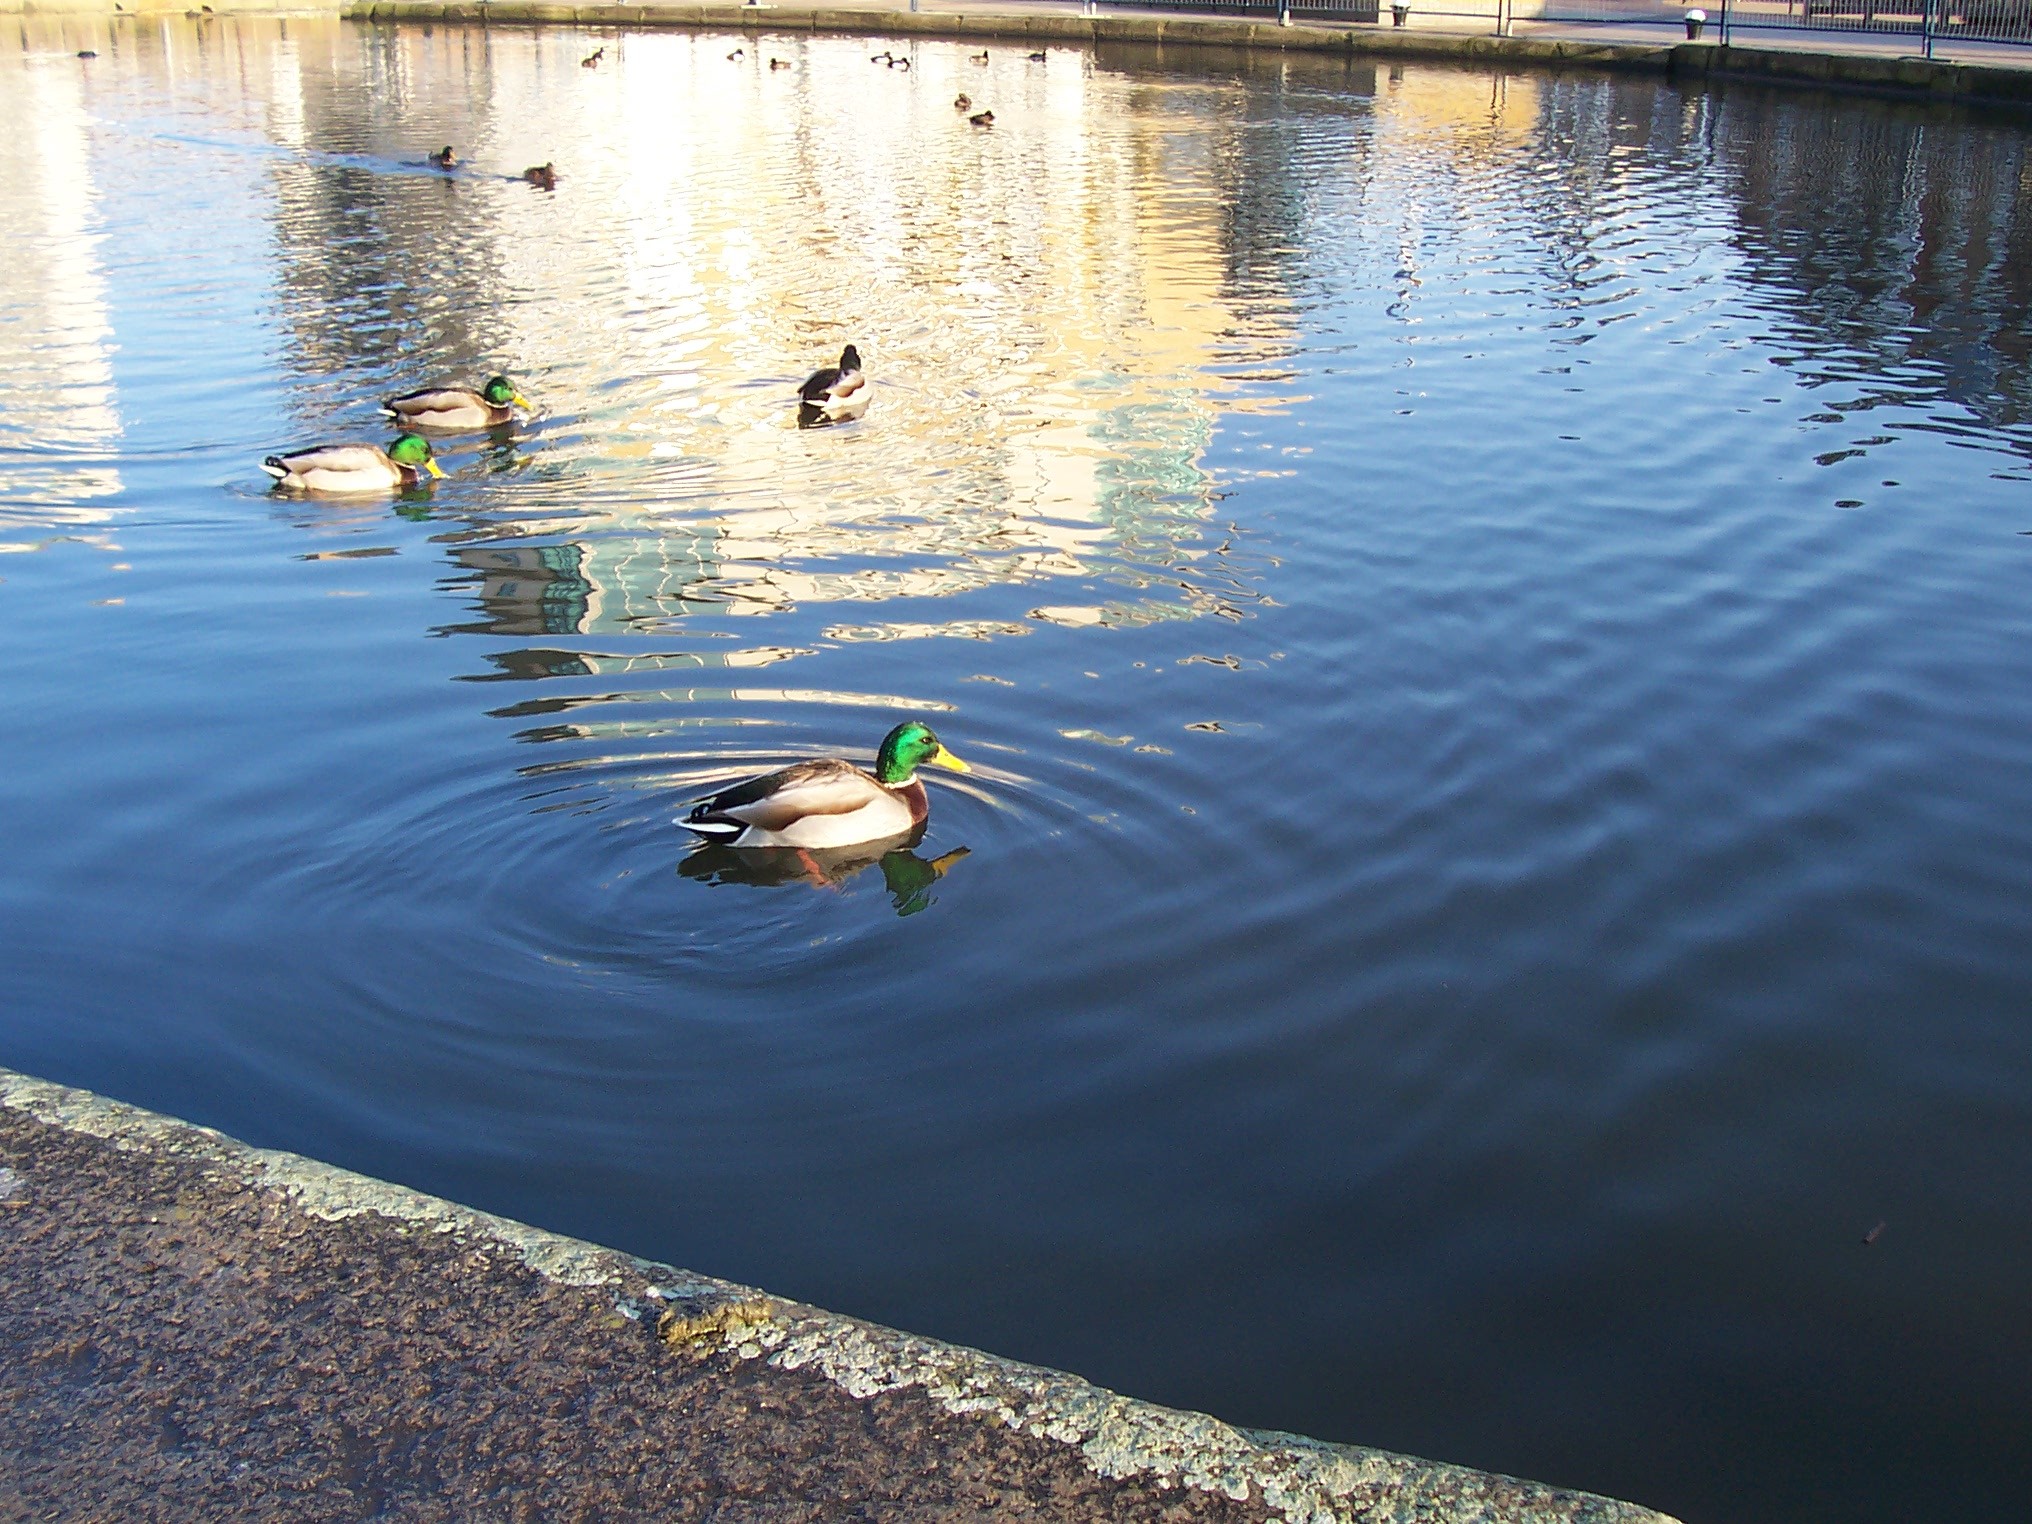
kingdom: Animalia
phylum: Chordata
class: Aves
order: Anseriformes
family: Anatidae
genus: Anas
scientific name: Anas platyrhynchos
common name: Mallard
